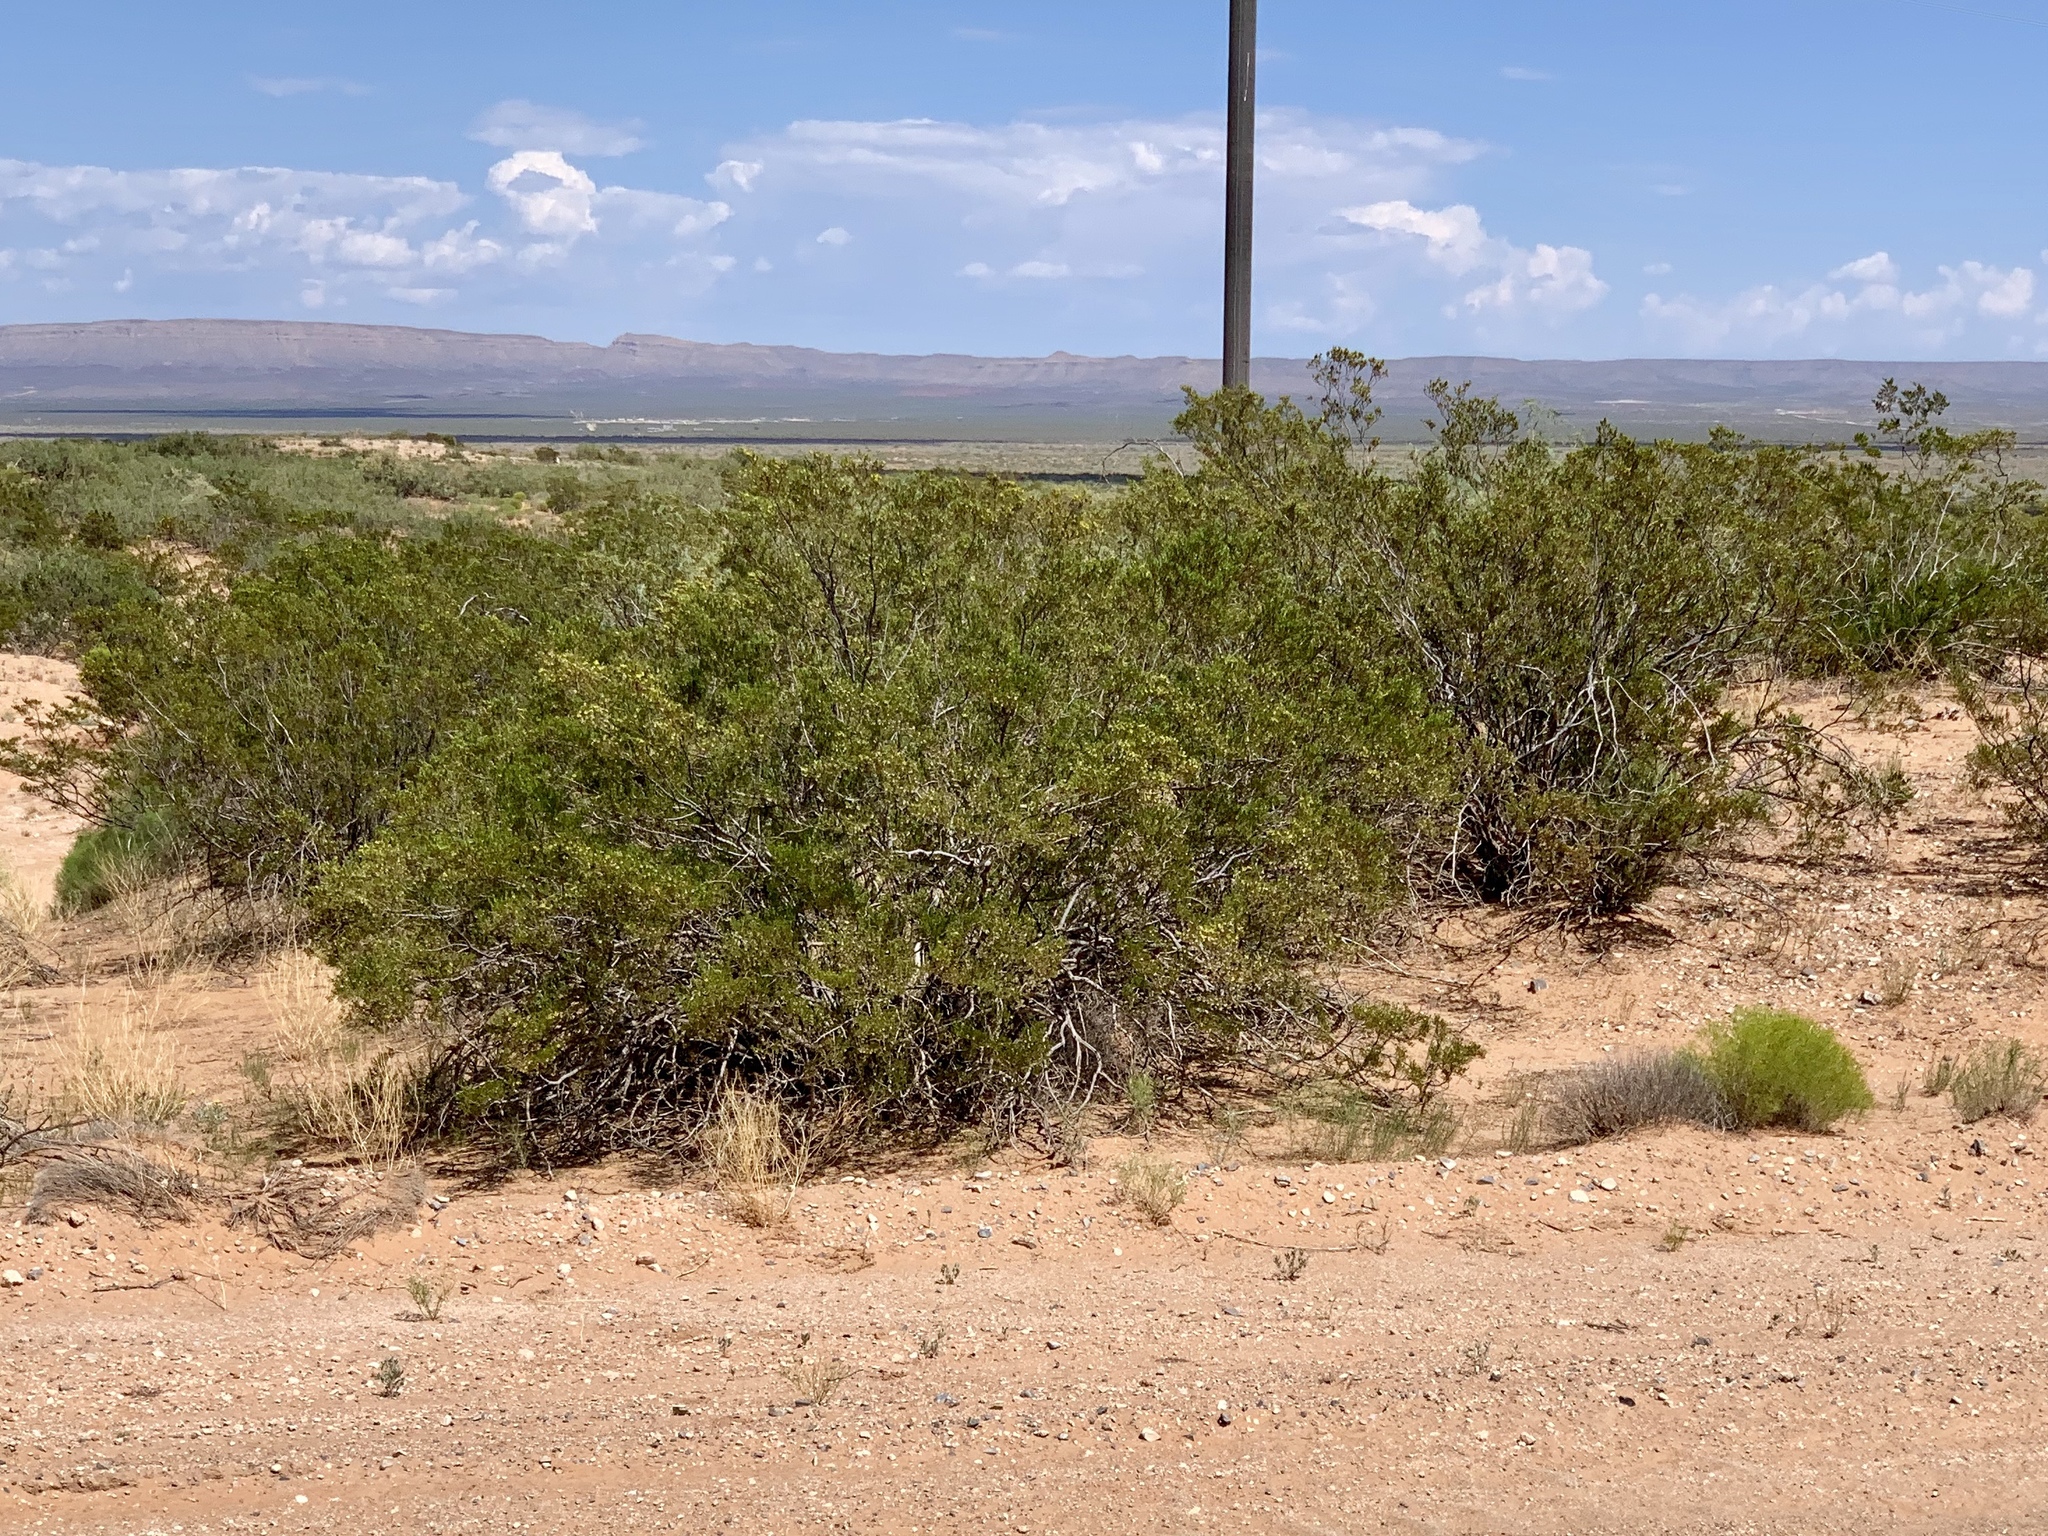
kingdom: Plantae
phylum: Tracheophyta
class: Magnoliopsida
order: Zygophyllales
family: Zygophyllaceae
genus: Larrea
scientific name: Larrea tridentata
